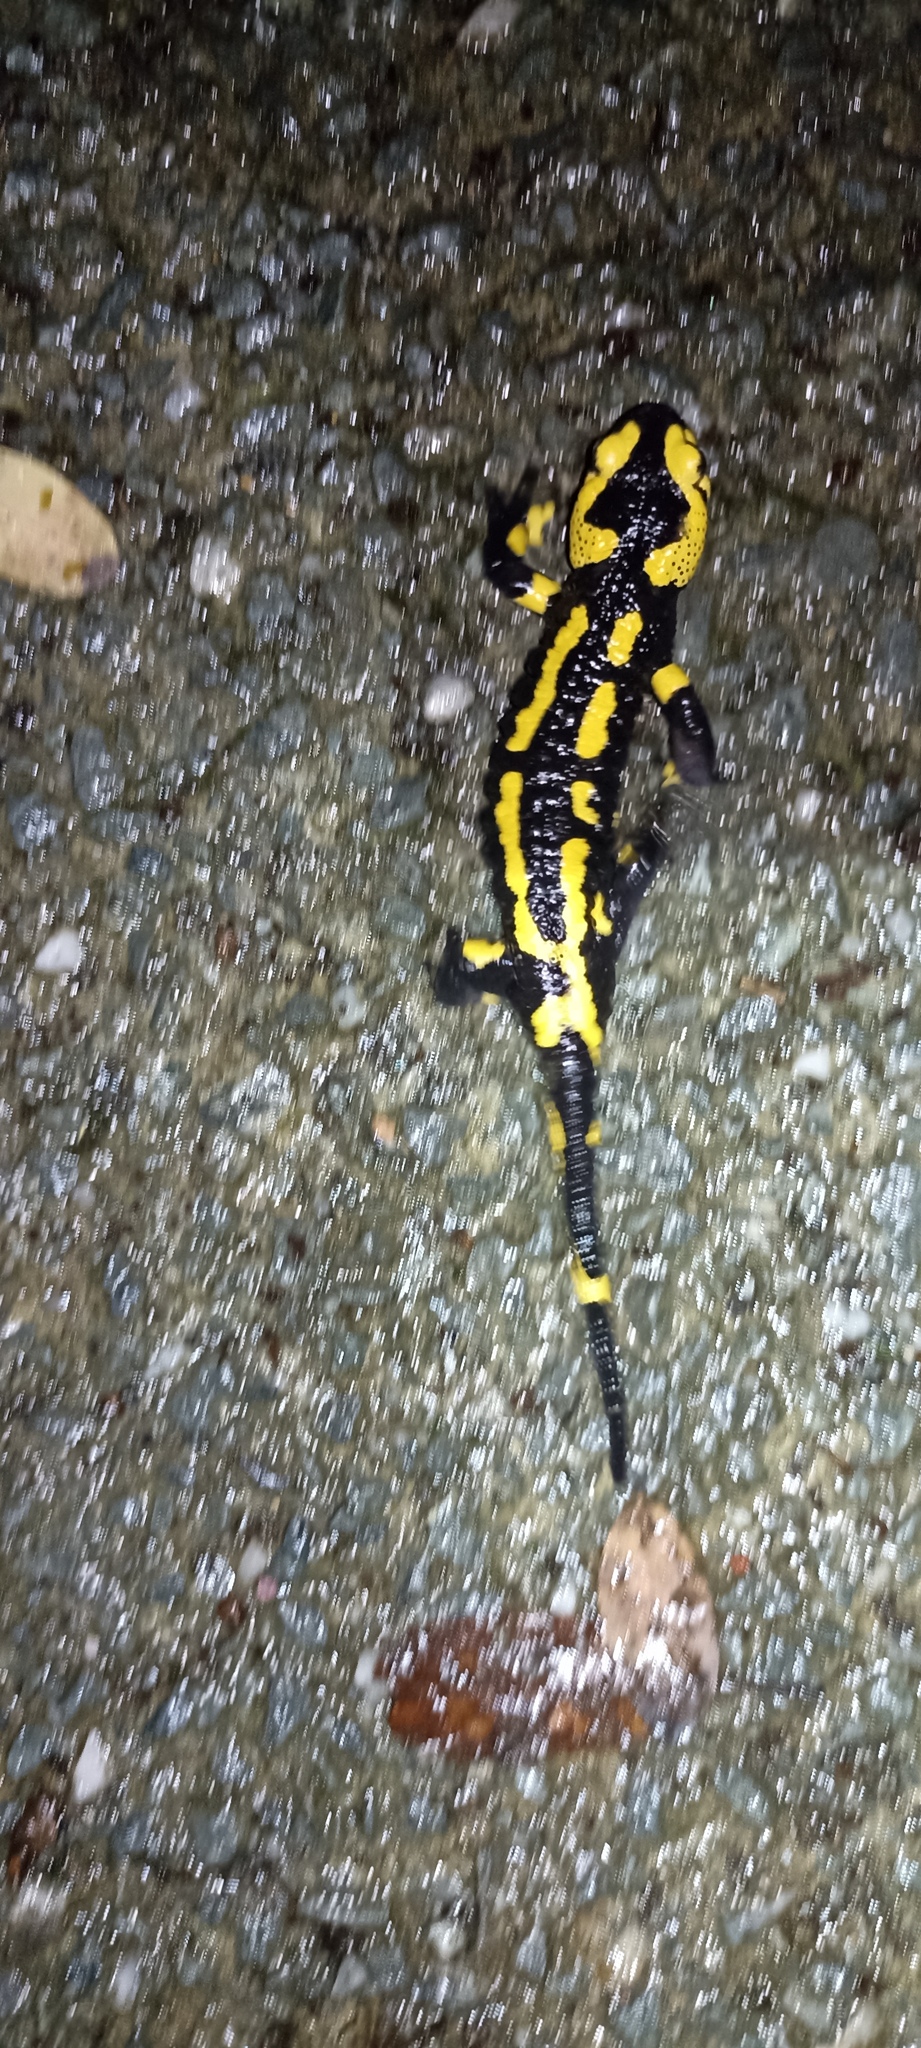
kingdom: Animalia
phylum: Chordata
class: Amphibia
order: Caudata
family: Salamandridae
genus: Salamandra
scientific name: Salamandra salamandra
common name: Fire salamander
